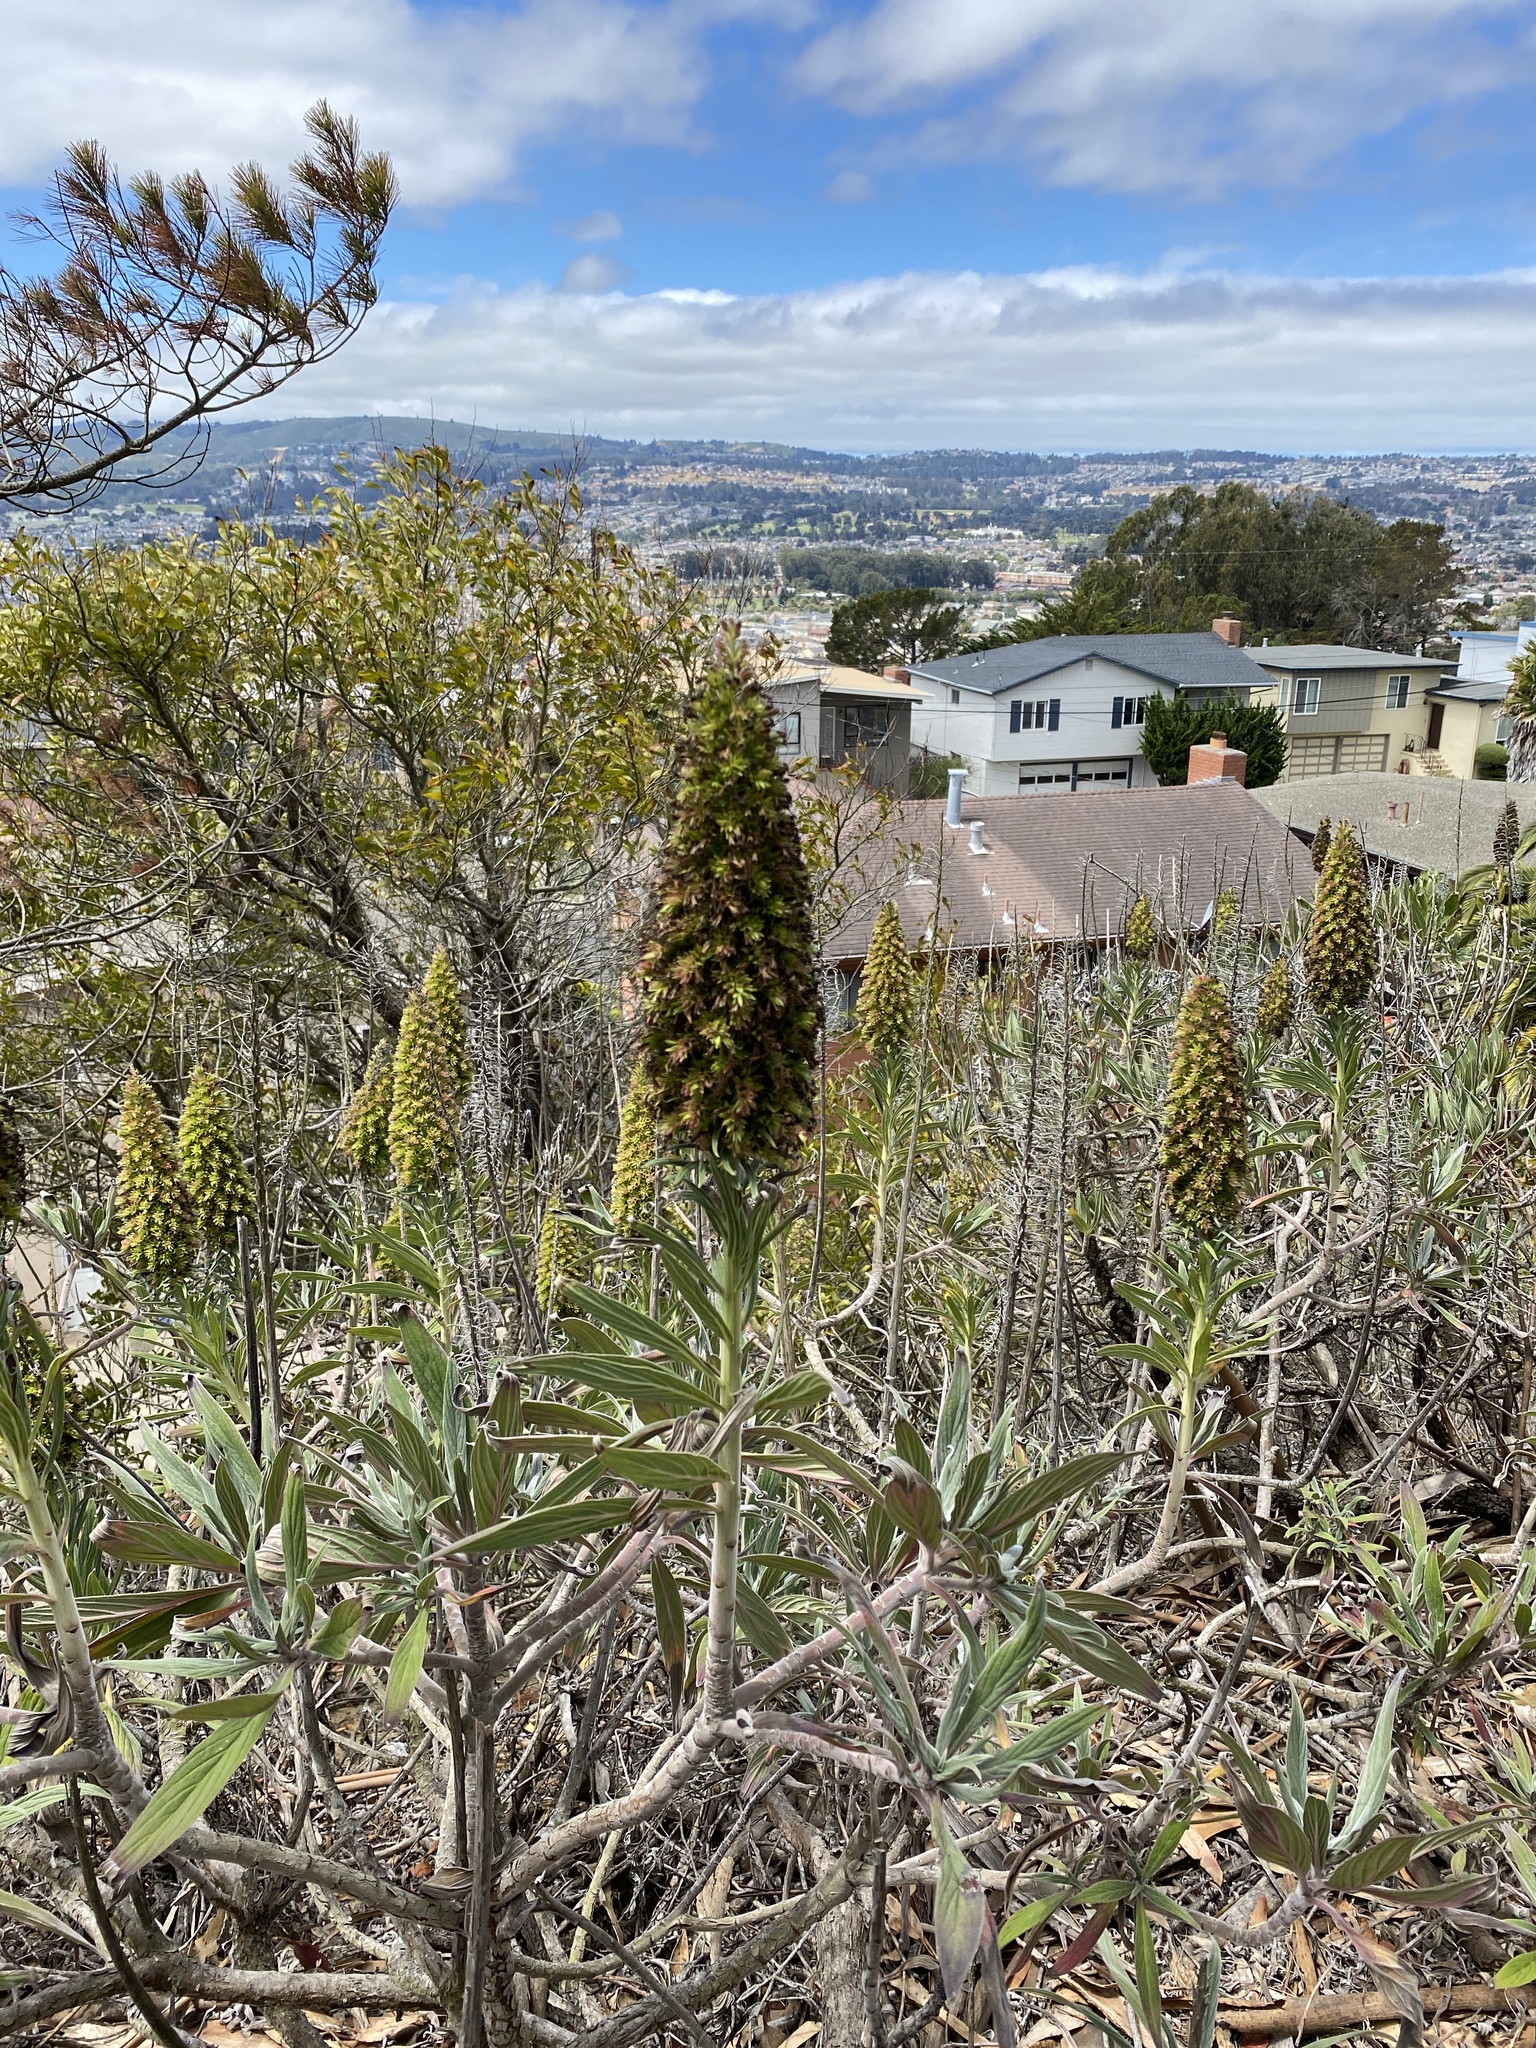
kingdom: Plantae
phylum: Tracheophyta
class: Magnoliopsida
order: Boraginales
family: Boraginaceae
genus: Echium
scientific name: Echium candicans
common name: Pride of madeira
